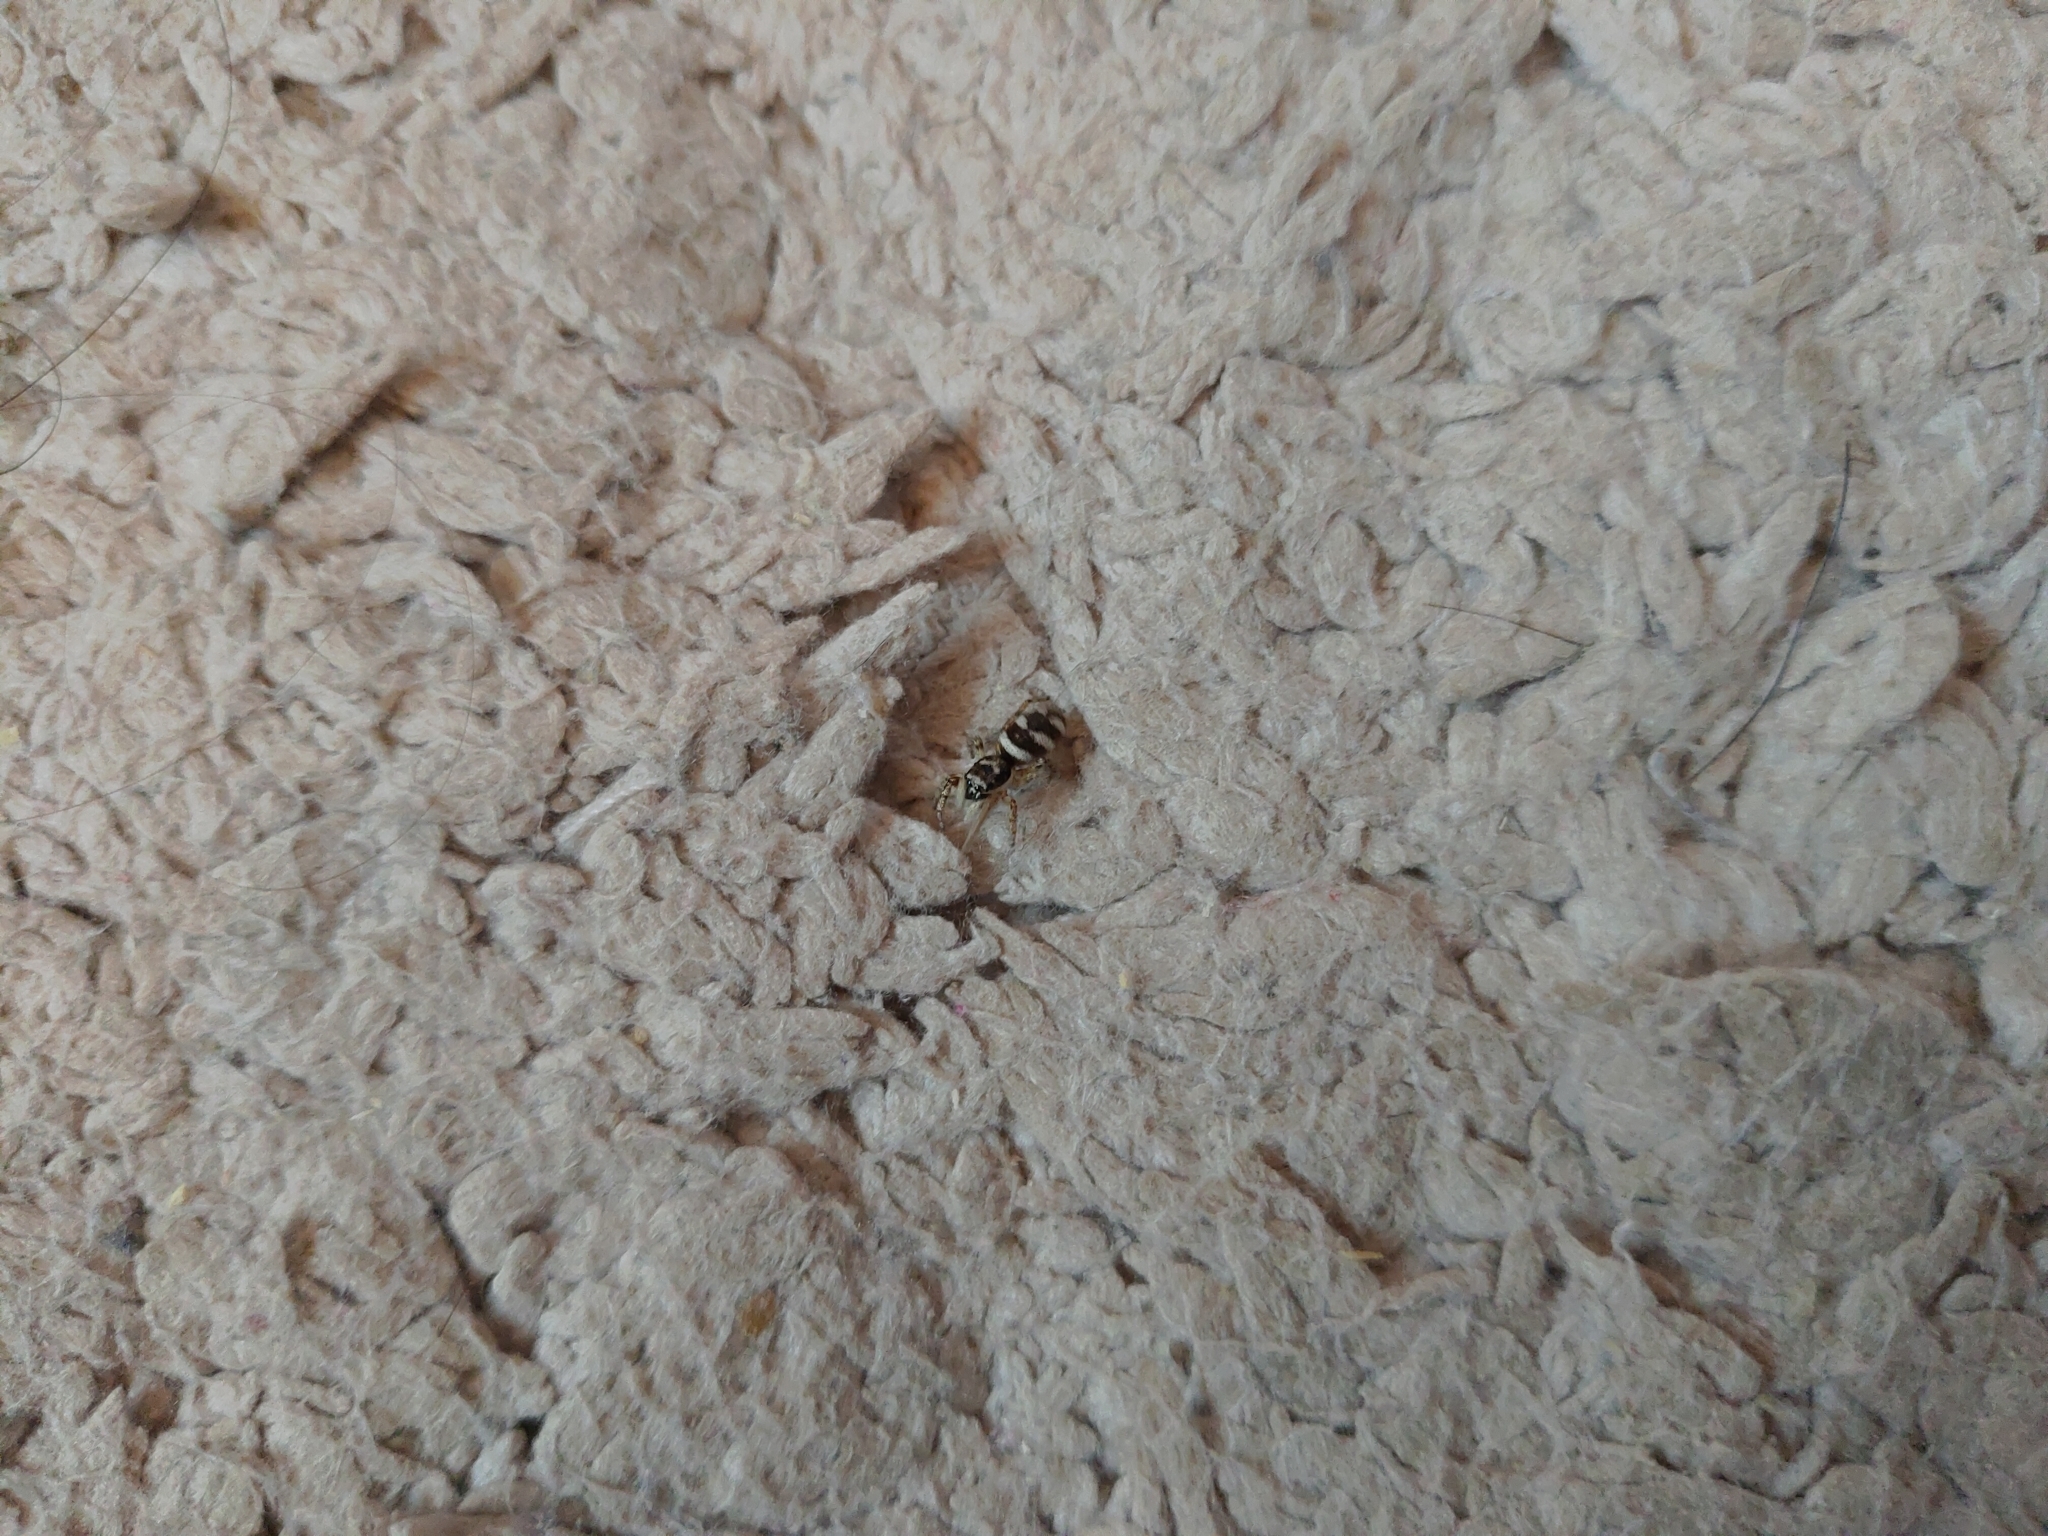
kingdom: Animalia
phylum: Arthropoda
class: Arachnida
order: Araneae
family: Salticidae
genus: Salticus
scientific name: Salticus scenicus
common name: Zebra jumper
